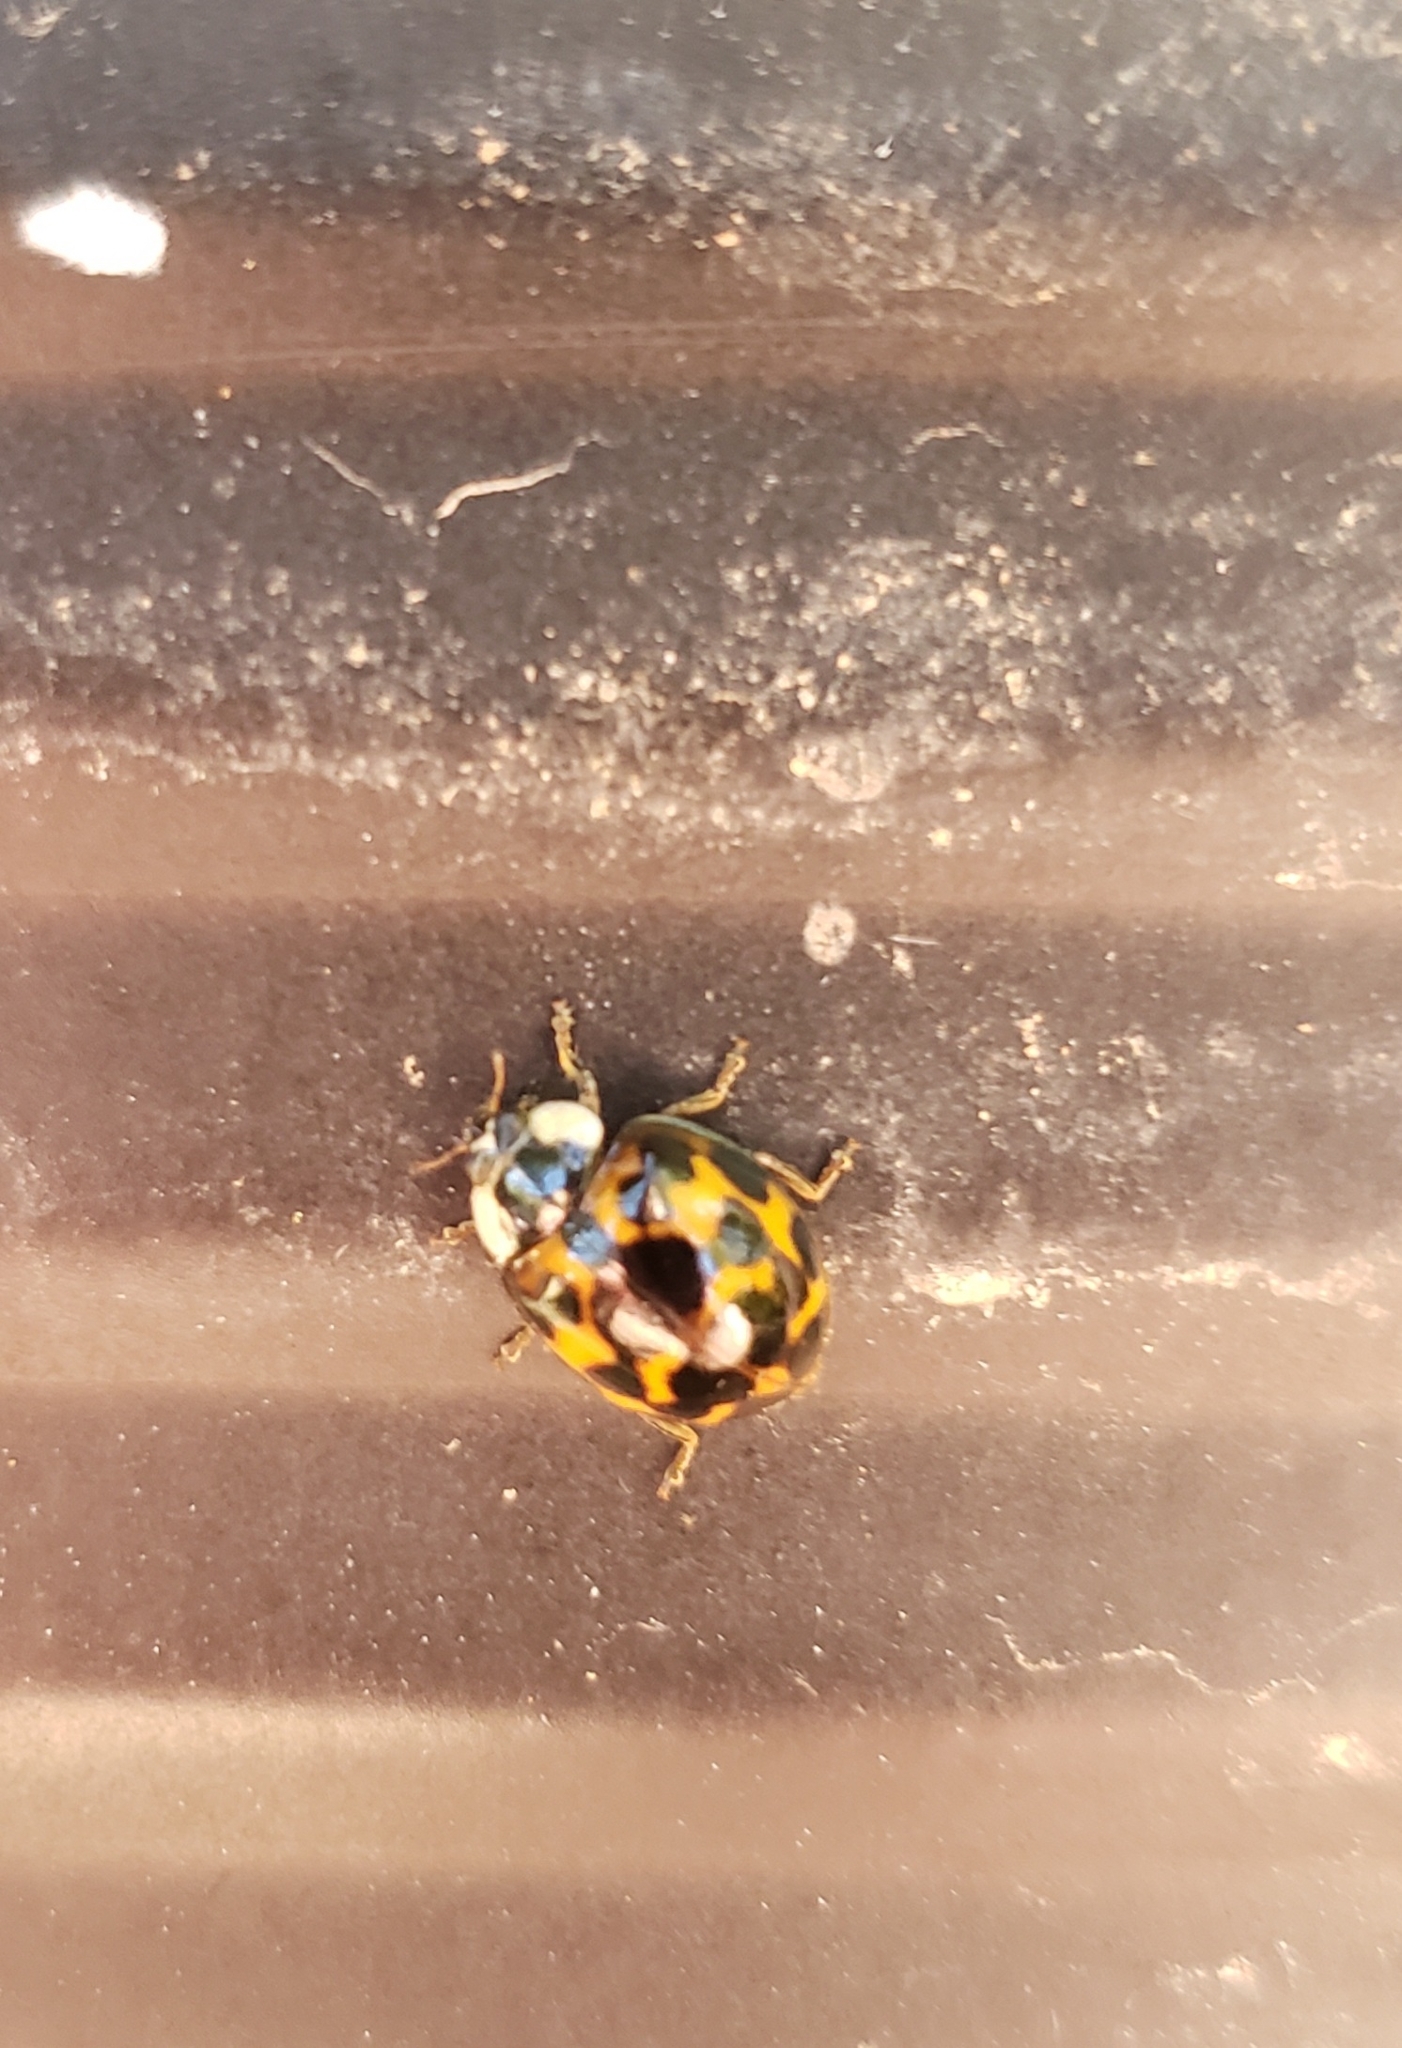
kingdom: Animalia
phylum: Arthropoda
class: Insecta
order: Coleoptera
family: Coccinellidae
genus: Harmonia
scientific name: Harmonia axyridis
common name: Harlequin ladybird
